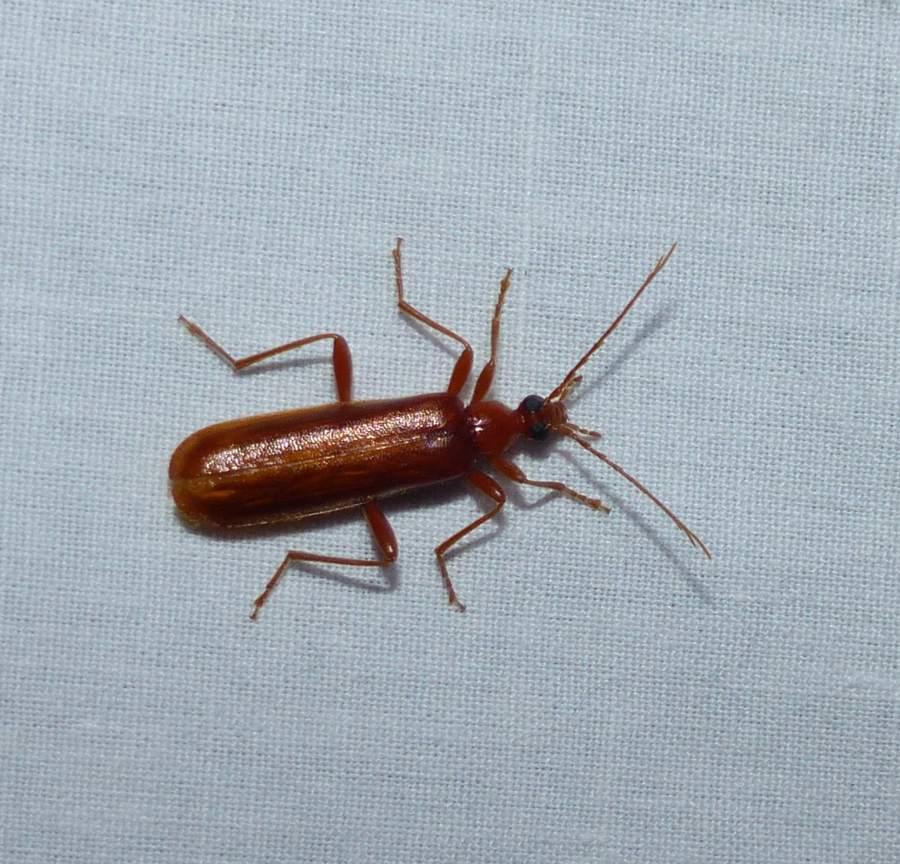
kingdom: Animalia
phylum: Arthropoda
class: Insecta
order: Coleoptera
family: Pyrochroidae
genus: Dendroides
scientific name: Dendroides concolor
